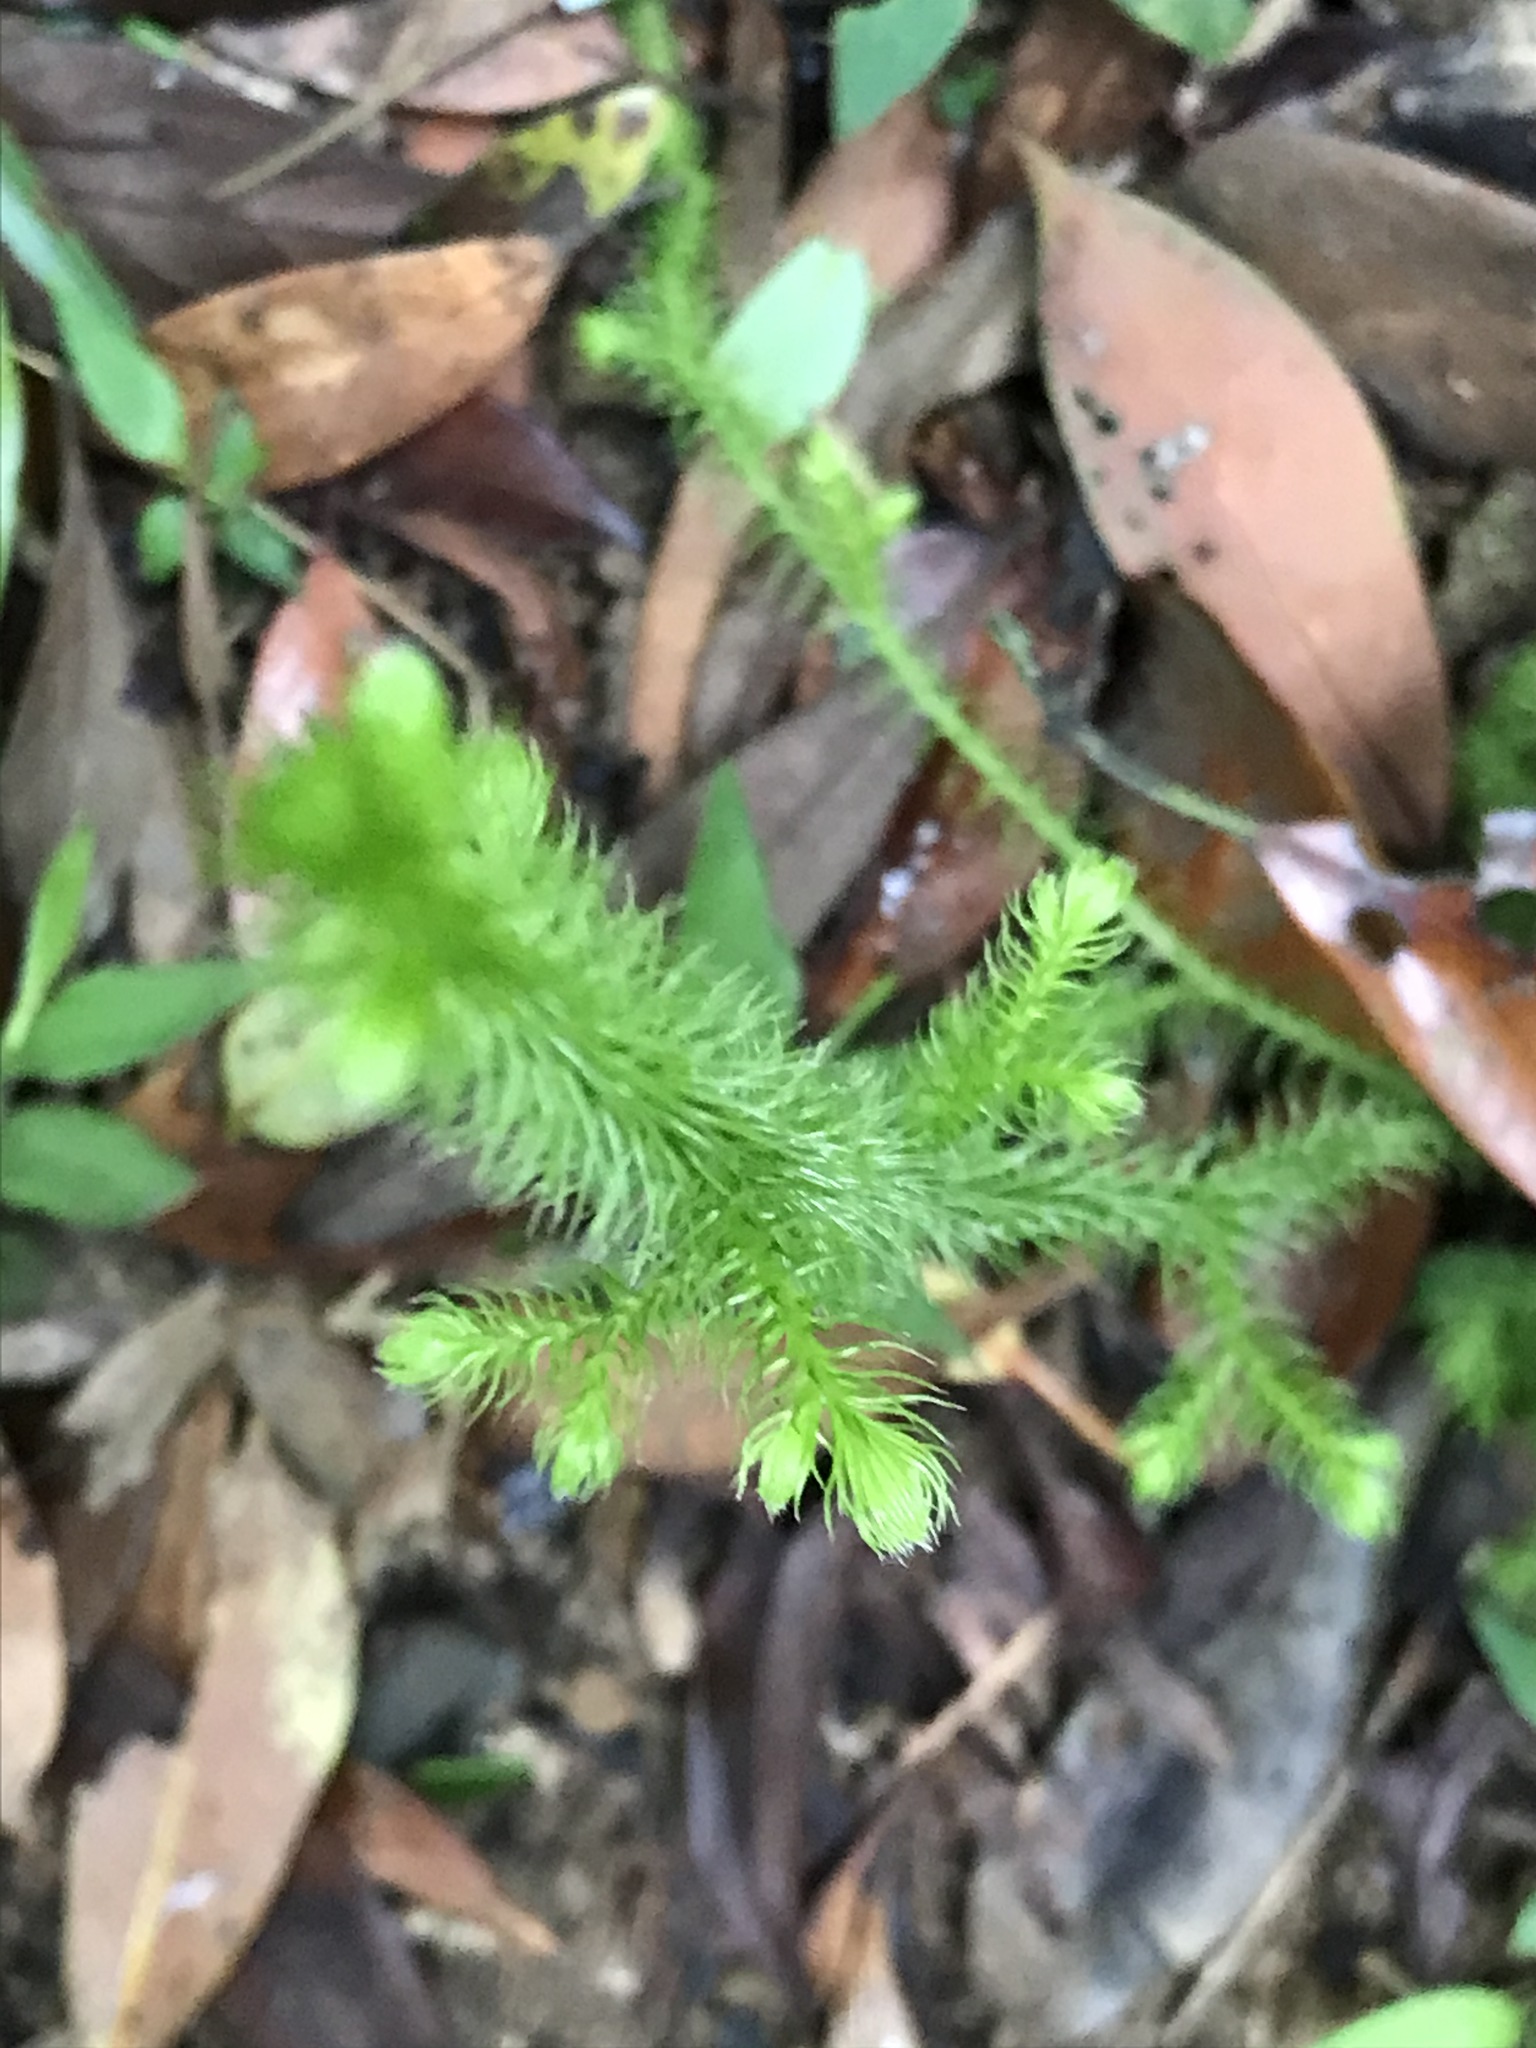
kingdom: Plantae
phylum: Tracheophyta
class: Lycopodiopsida
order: Lycopodiales
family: Lycopodiaceae
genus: Palhinhaea
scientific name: Palhinhaea cernua
